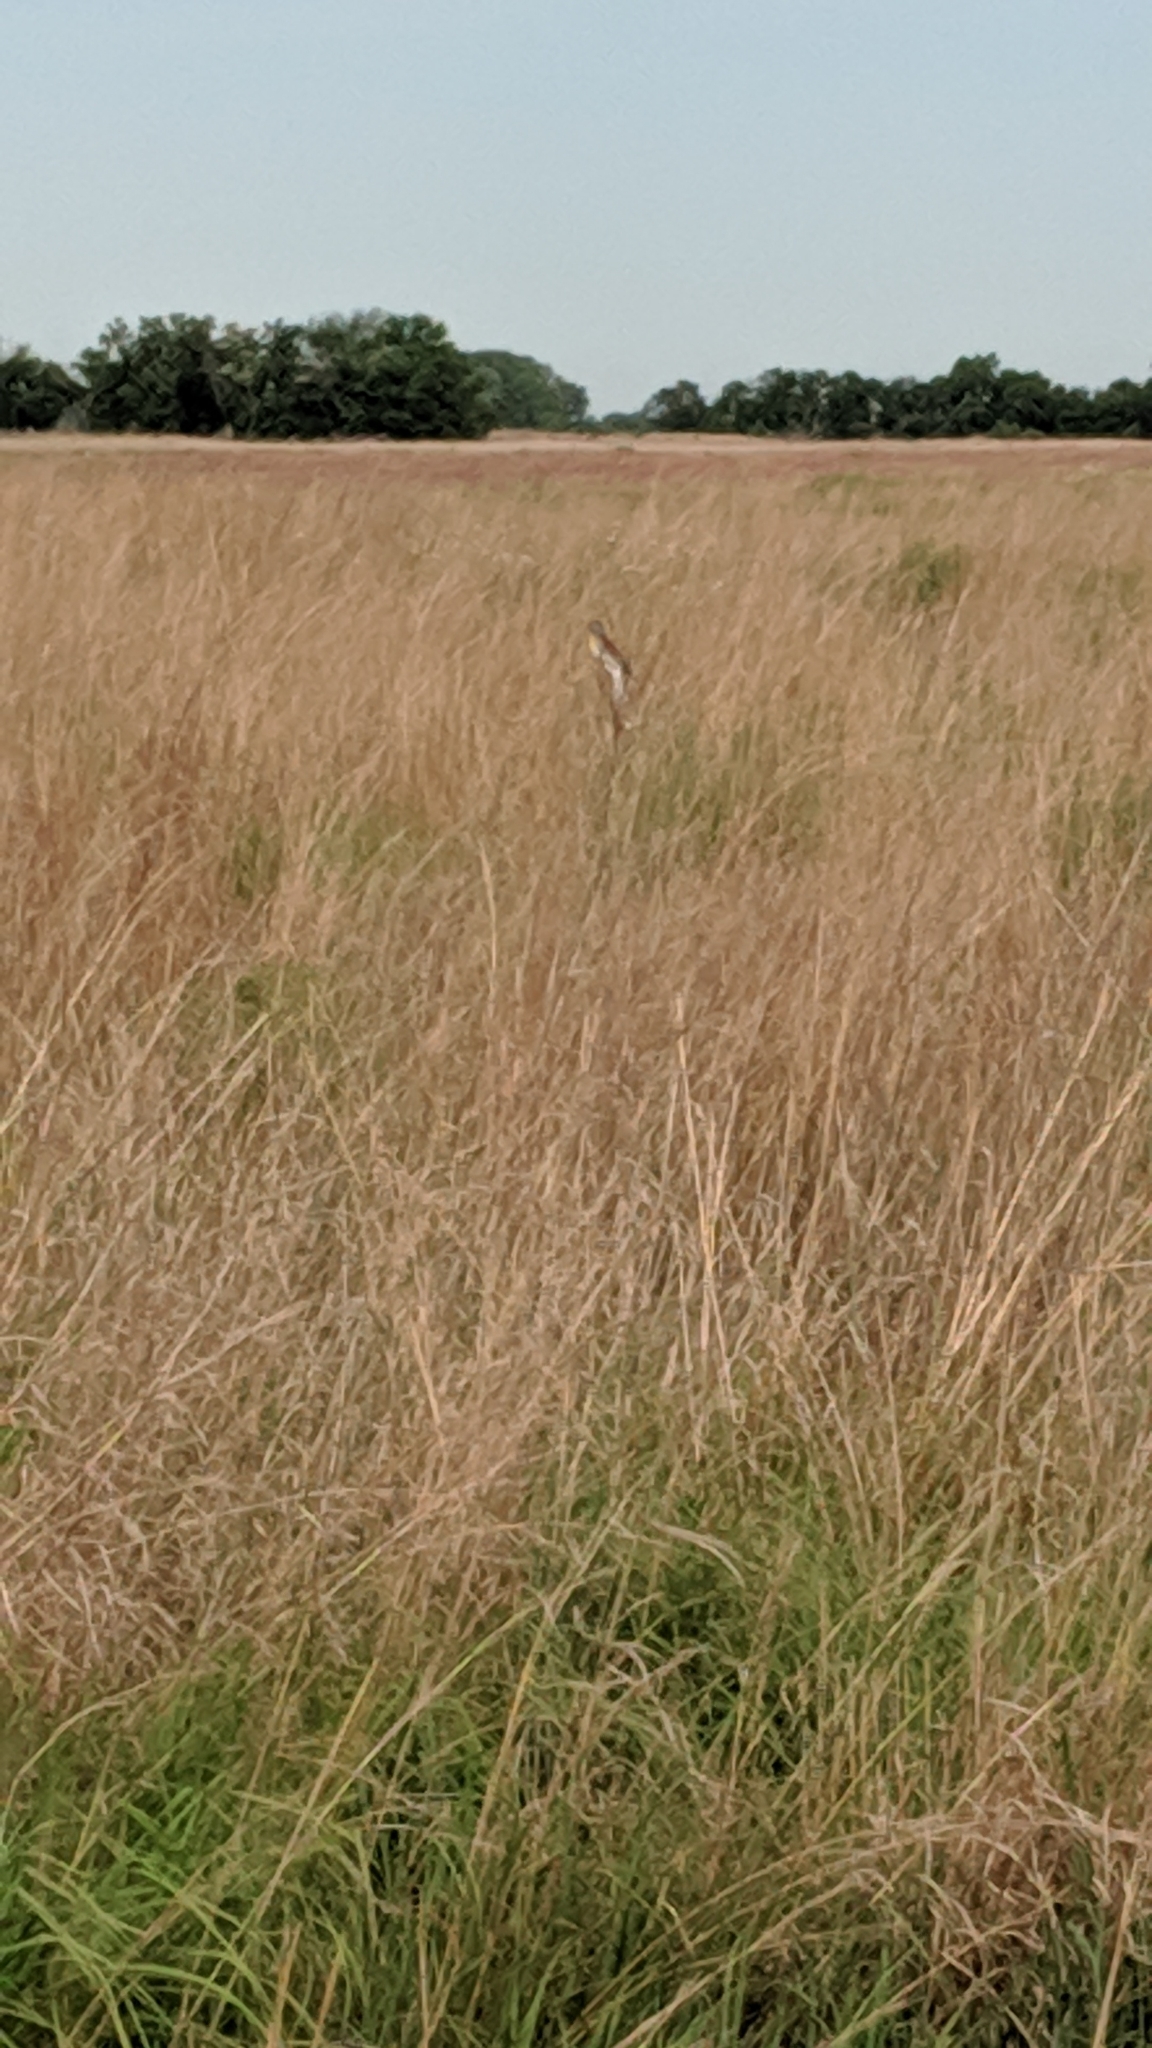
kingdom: Animalia
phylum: Chordata
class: Aves
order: Passeriformes
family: Cardinalidae
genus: Spiza
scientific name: Spiza americana
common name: Dickcissel
